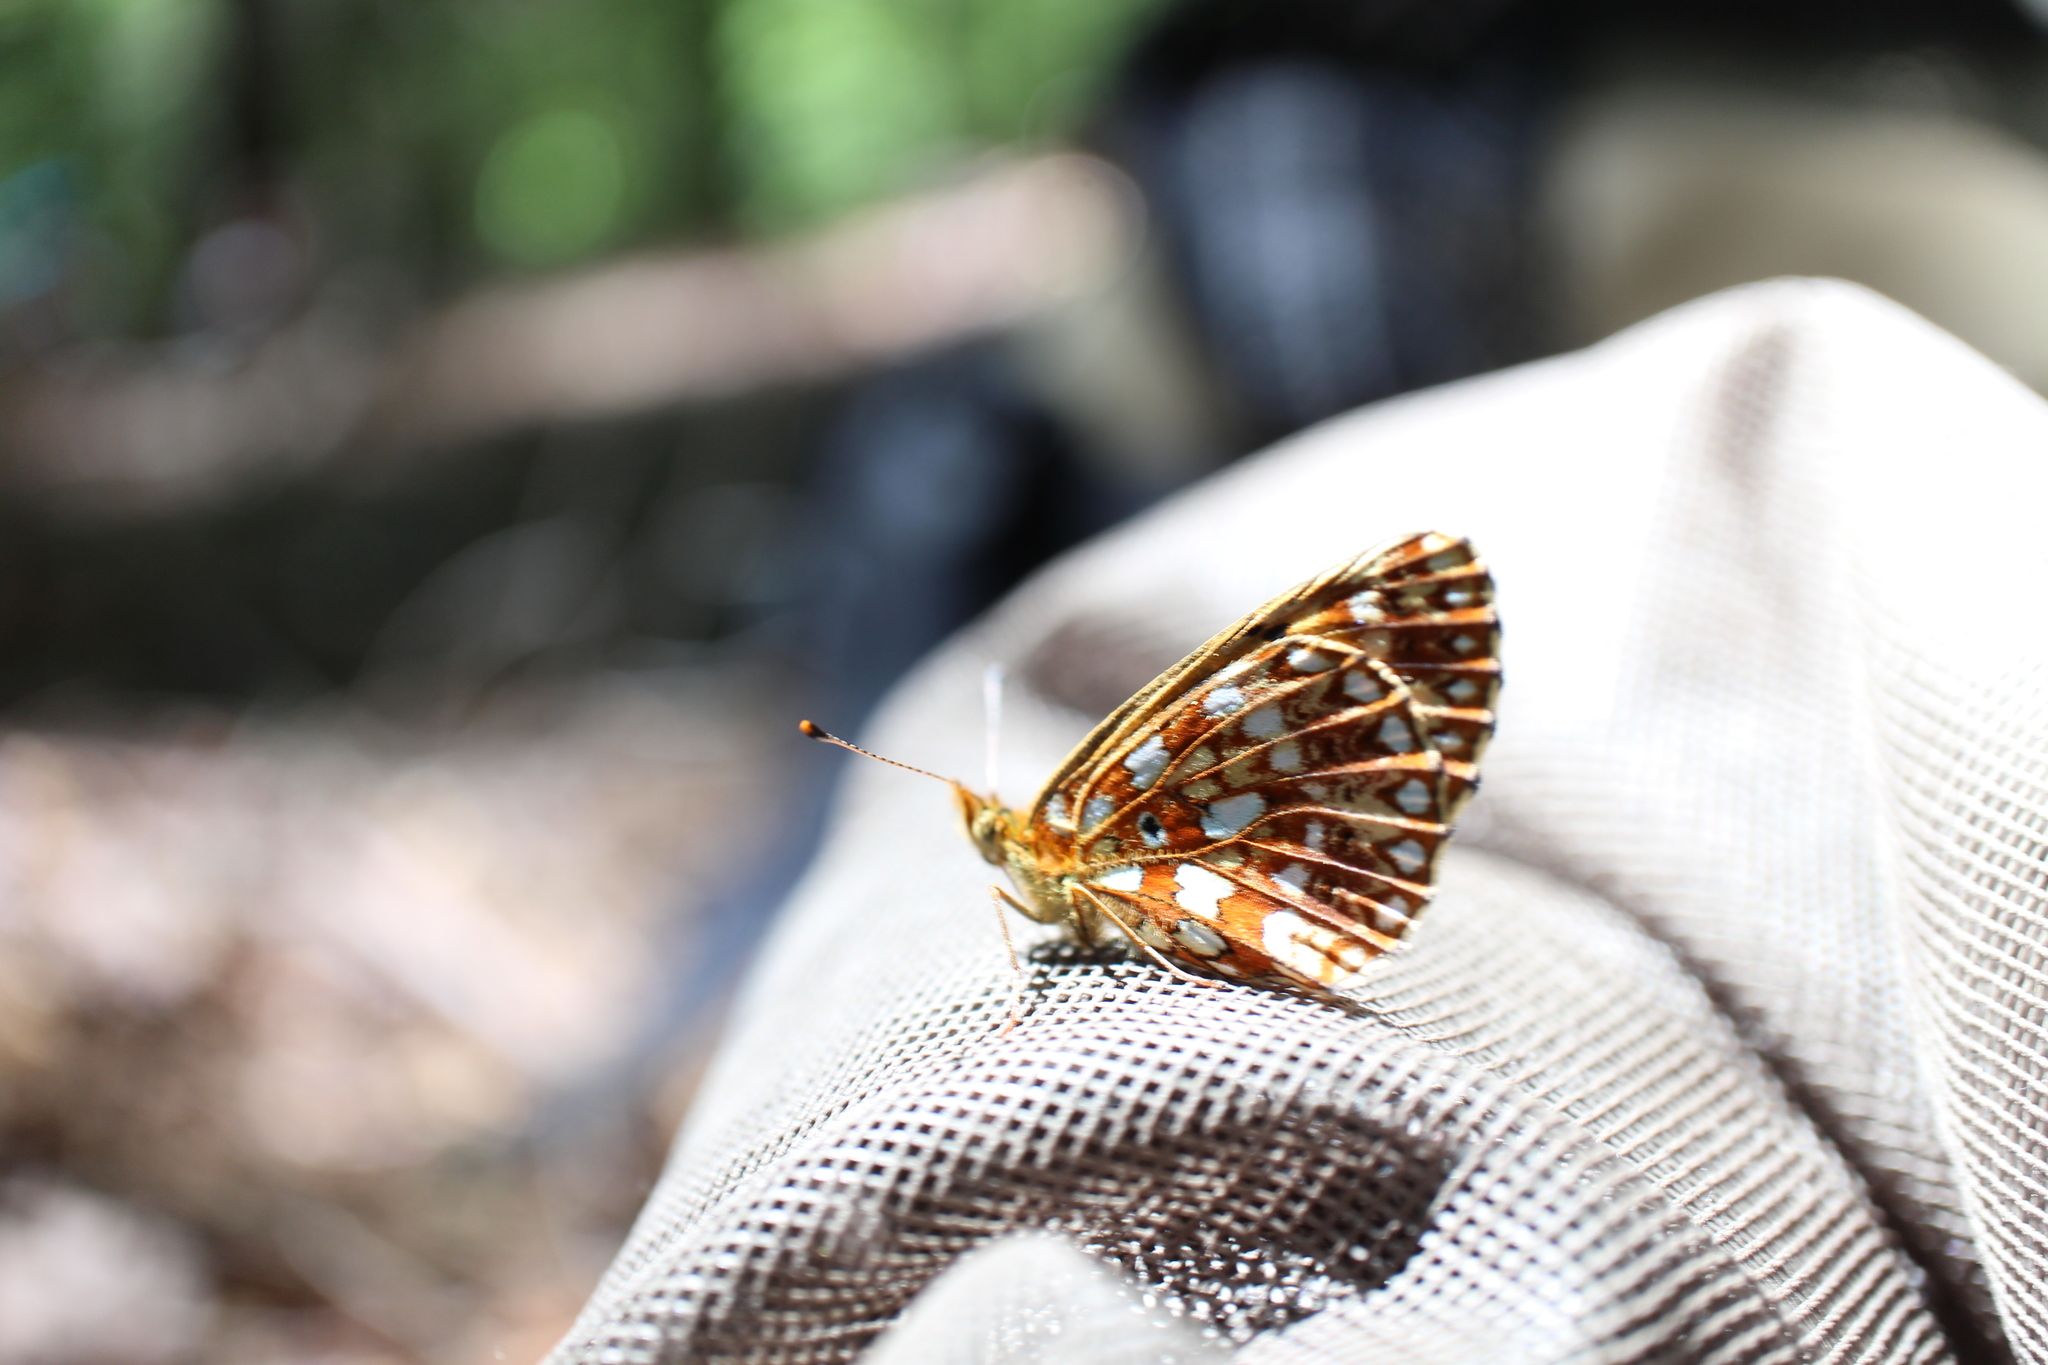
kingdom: Animalia
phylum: Arthropoda
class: Insecta
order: Lepidoptera
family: Nymphalidae
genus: Boloria
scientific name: Boloria
